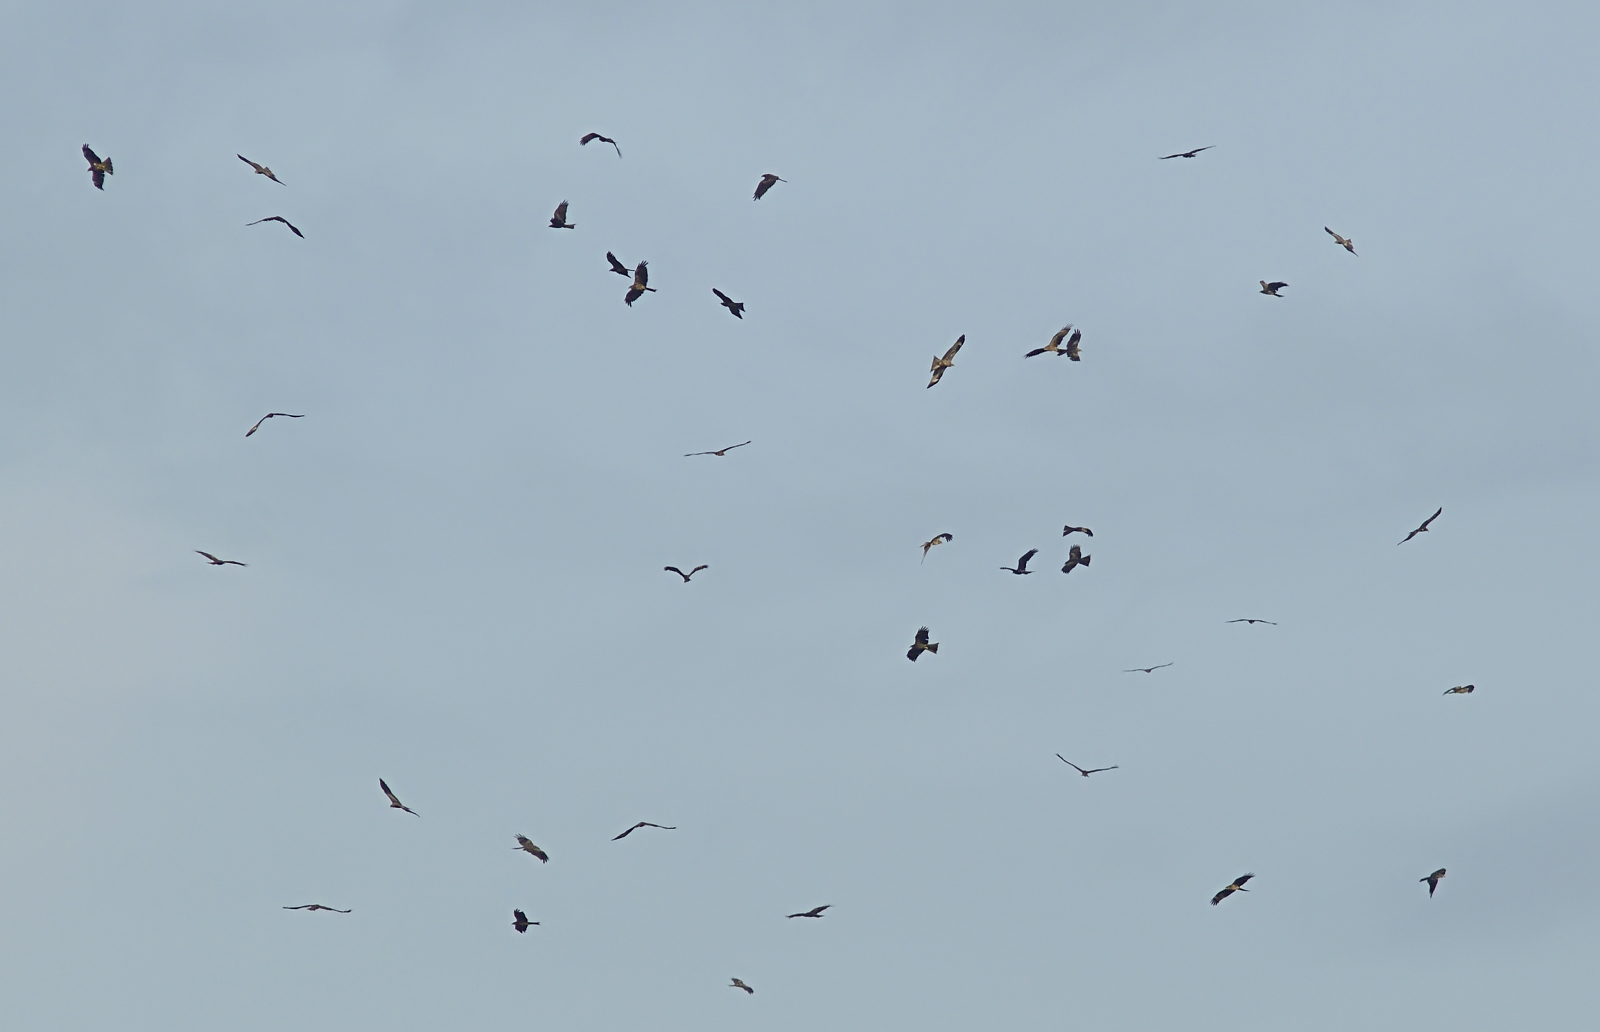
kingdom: Animalia
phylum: Chordata
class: Aves
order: Accipitriformes
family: Accipitridae
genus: Milvus
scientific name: Milvus migrans
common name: Black kite
